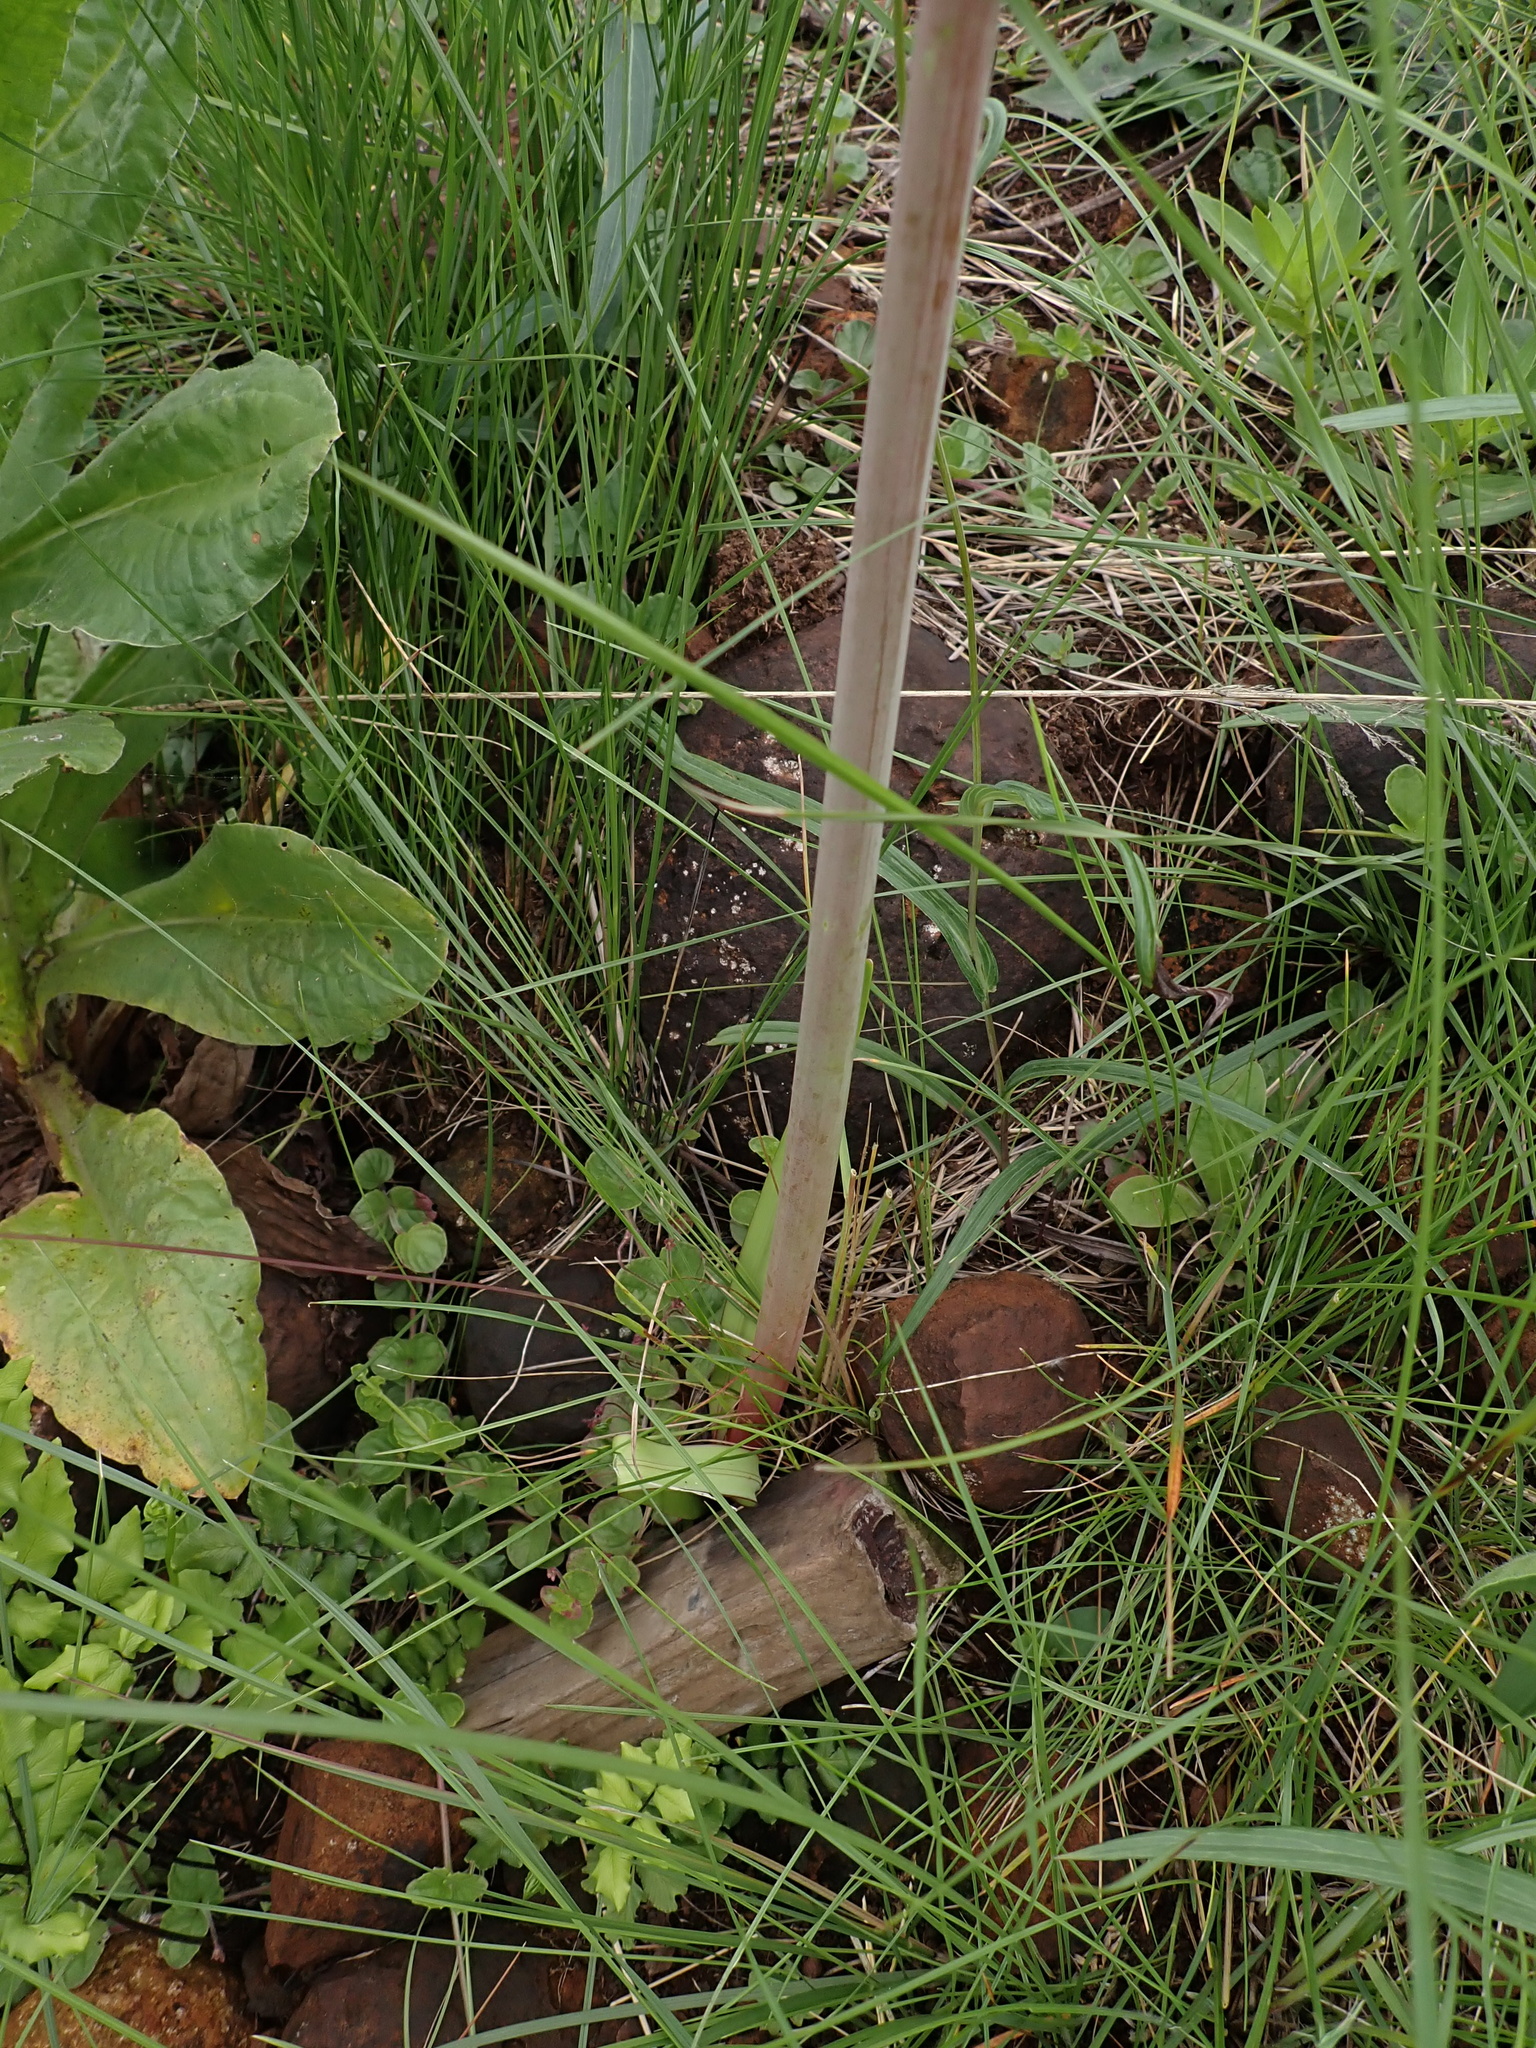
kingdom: Plantae
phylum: Tracheophyta
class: Liliopsida
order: Asparagales
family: Amaryllidaceae
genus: Cyrtanthus
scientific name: Cyrtanthus tuckii
